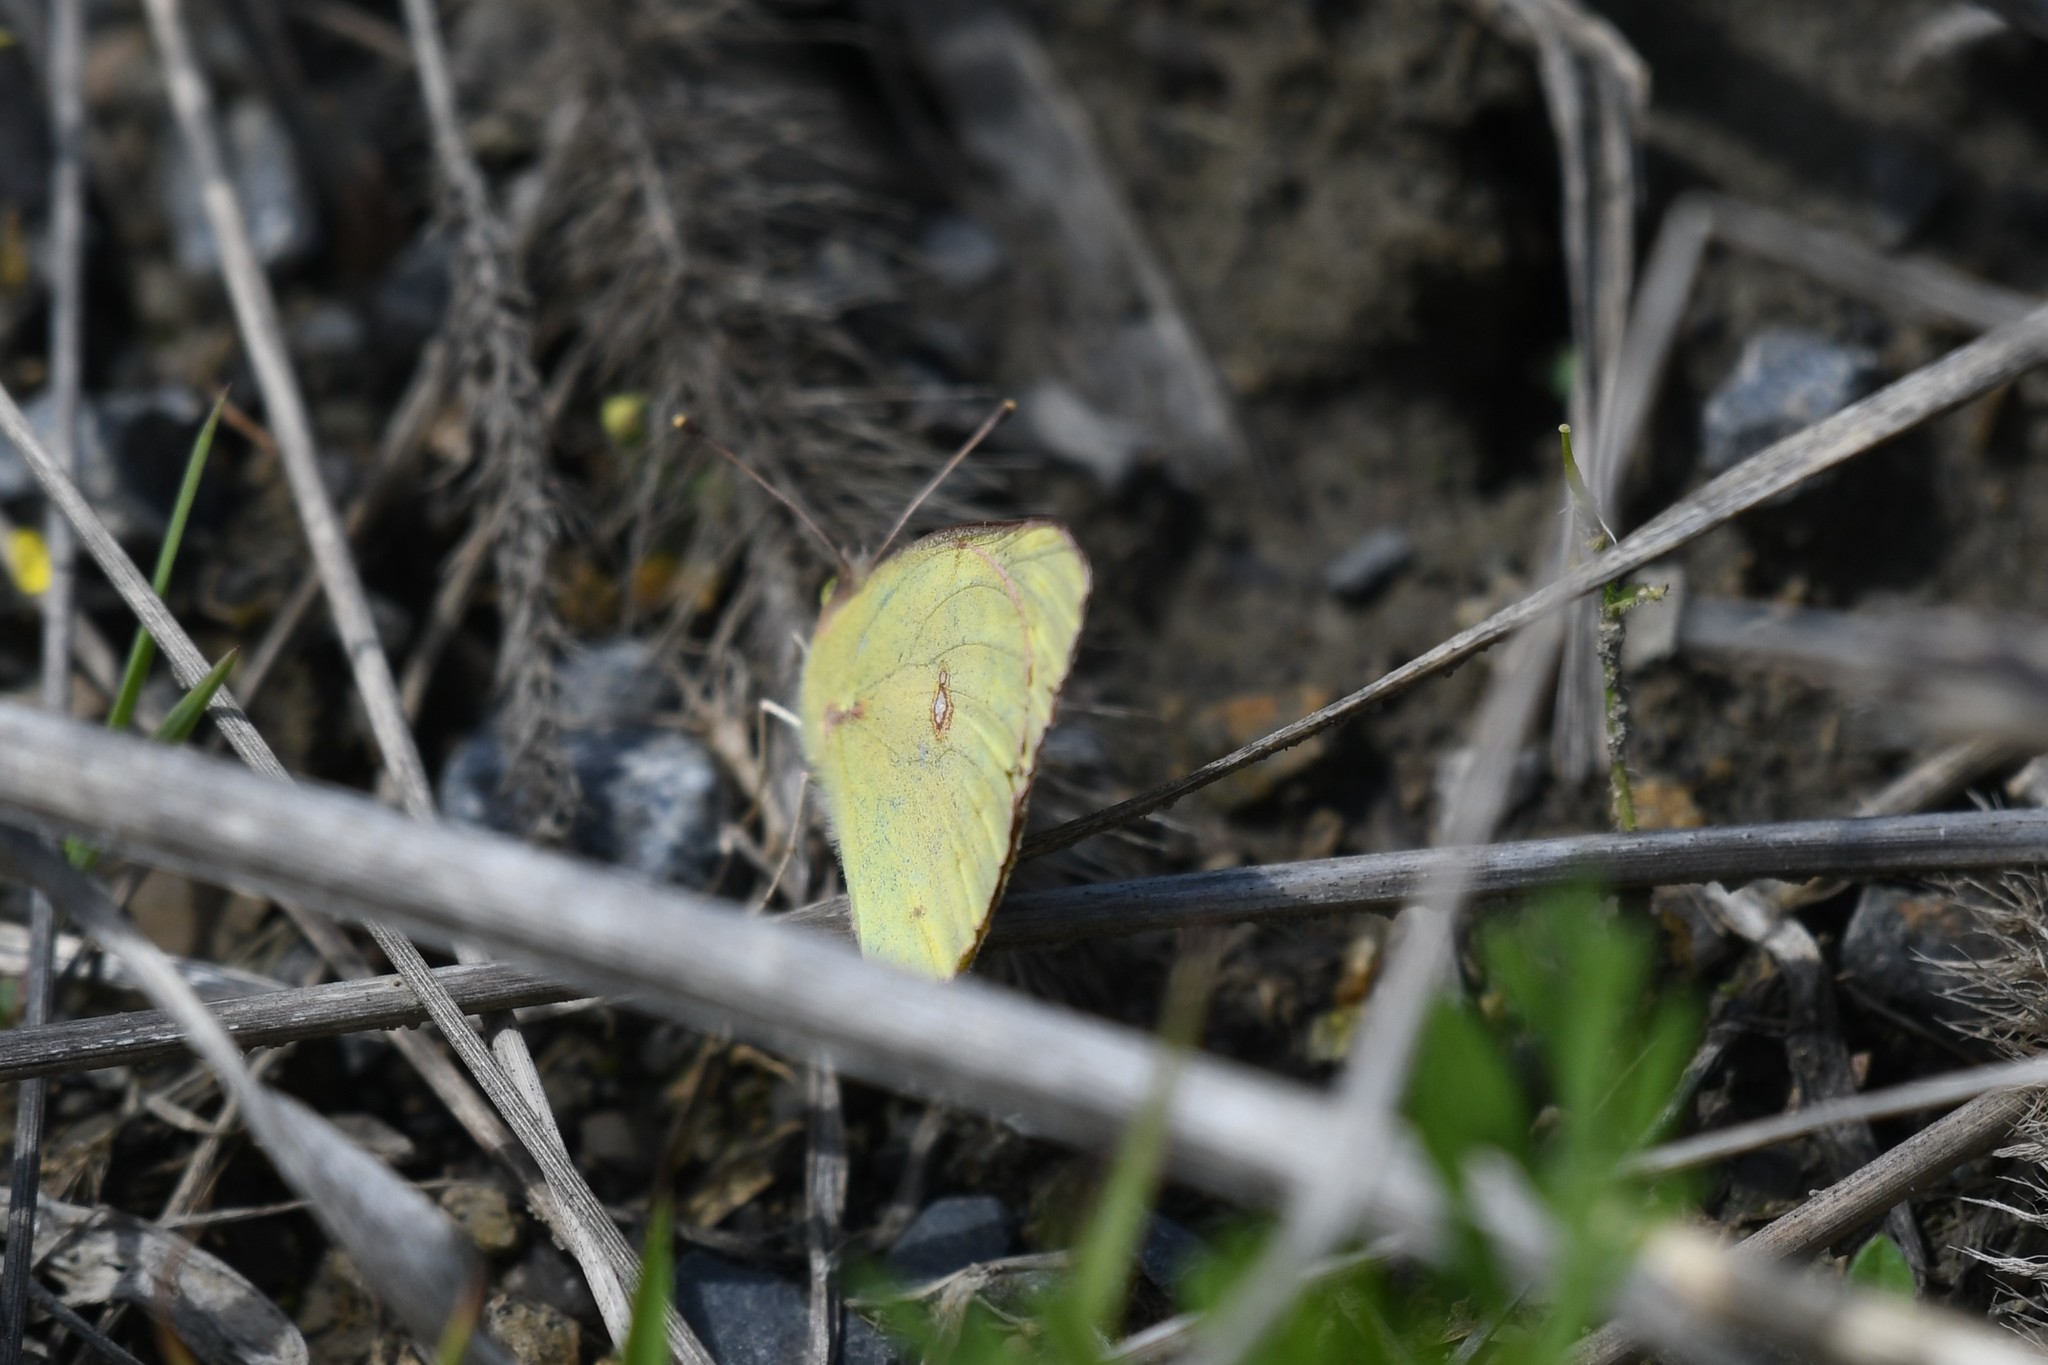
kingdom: Animalia
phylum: Arthropoda
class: Insecta
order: Lepidoptera
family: Pieridae
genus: Colias
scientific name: Colias philodice
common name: Clouded sulphur
